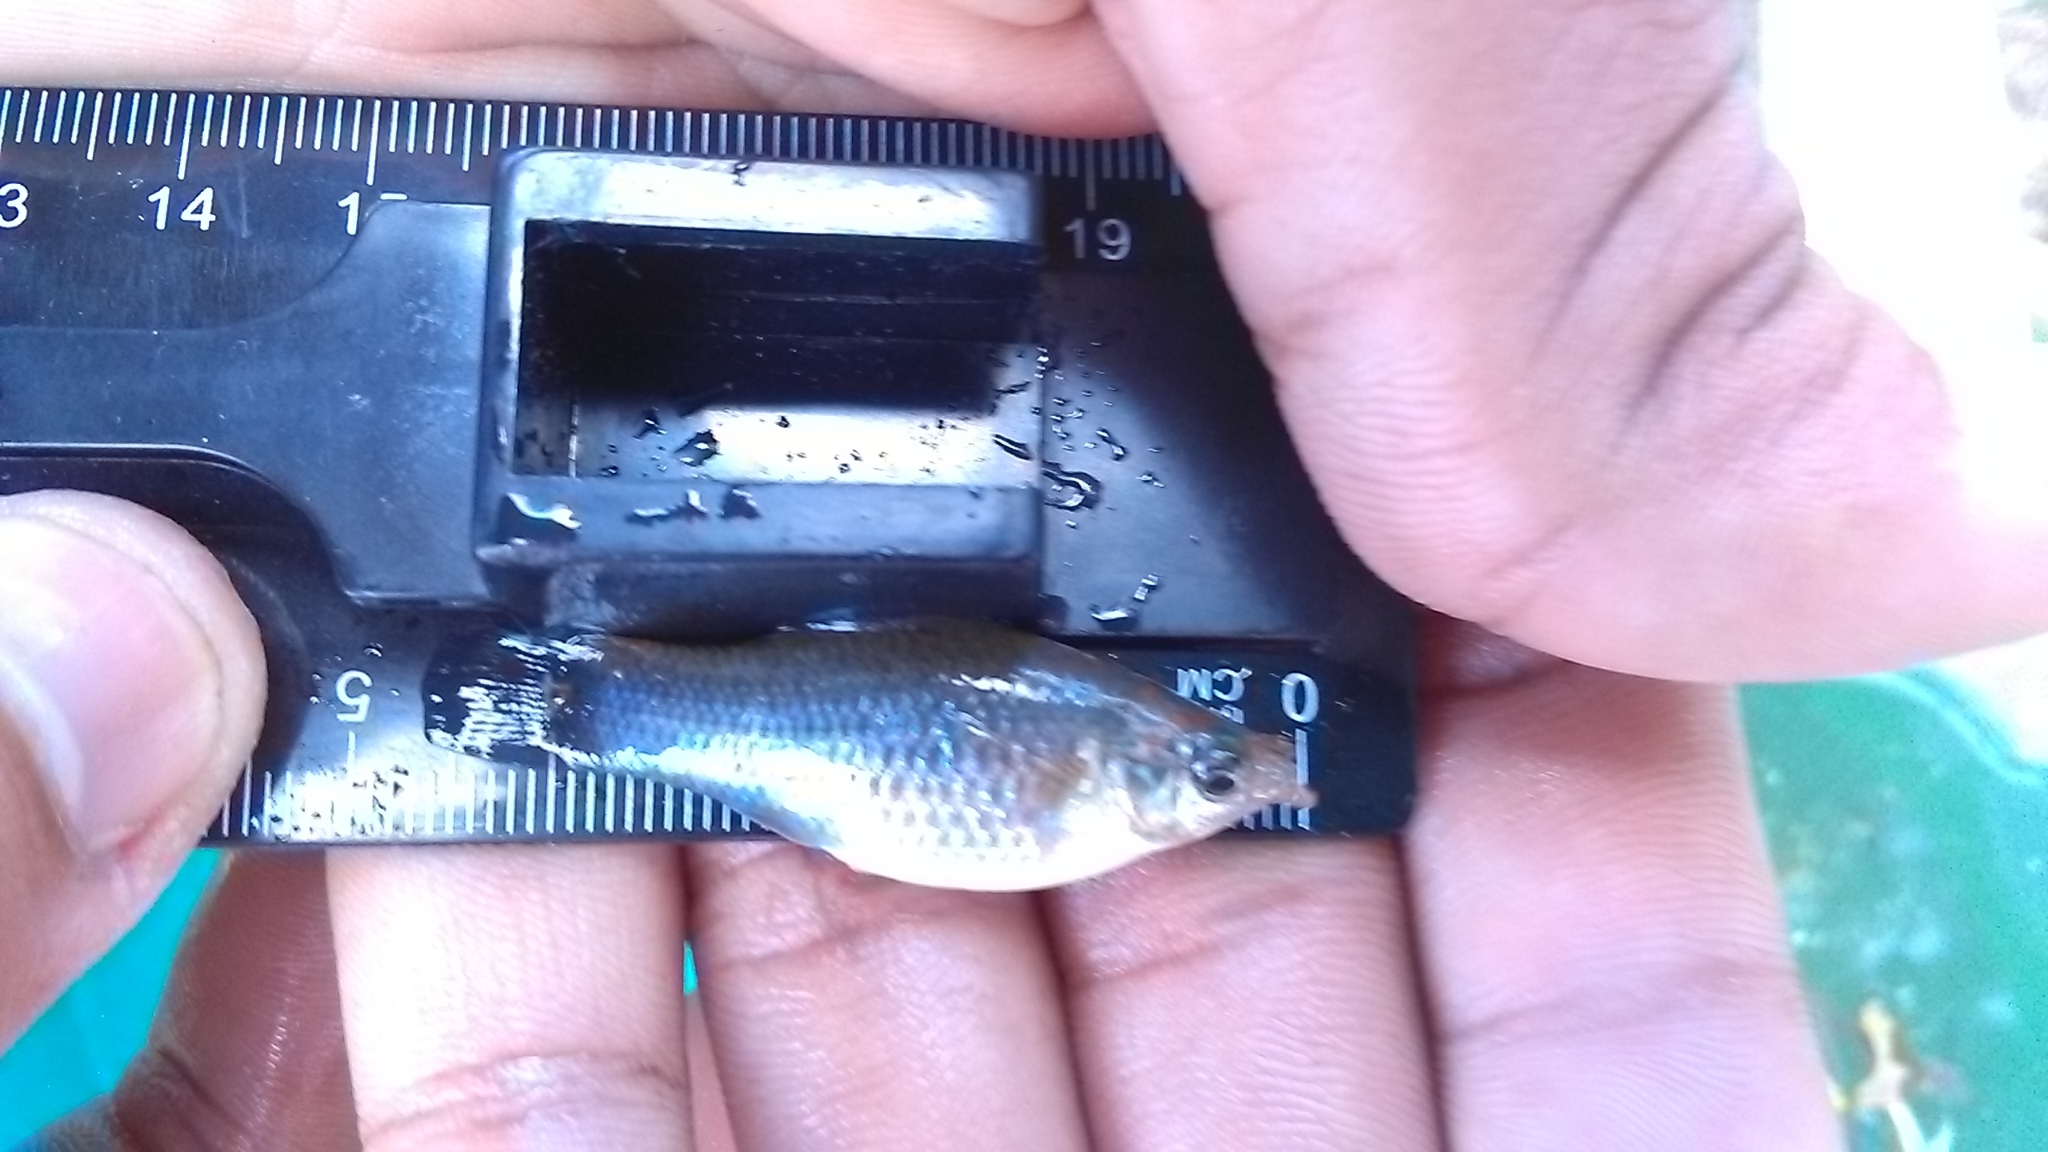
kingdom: Animalia
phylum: Chordata
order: Cyprinodontiformes
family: Poeciliidae
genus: Poecilia
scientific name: Poecilia mexicana
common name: Shortfin molly
